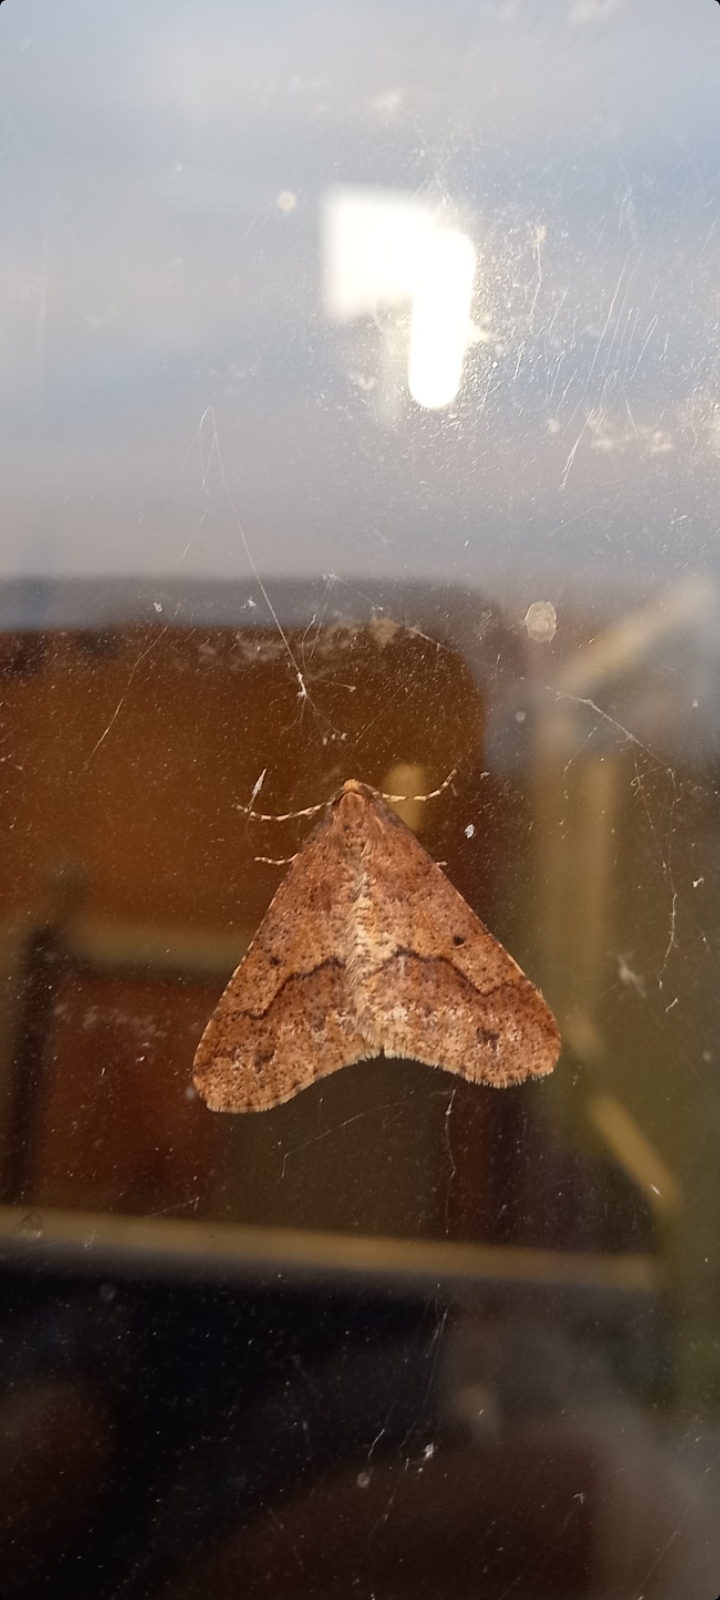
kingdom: Animalia
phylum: Arthropoda
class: Insecta
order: Lepidoptera
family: Geometridae
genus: Erannis
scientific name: Erannis defoliaria
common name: Mottled umber
